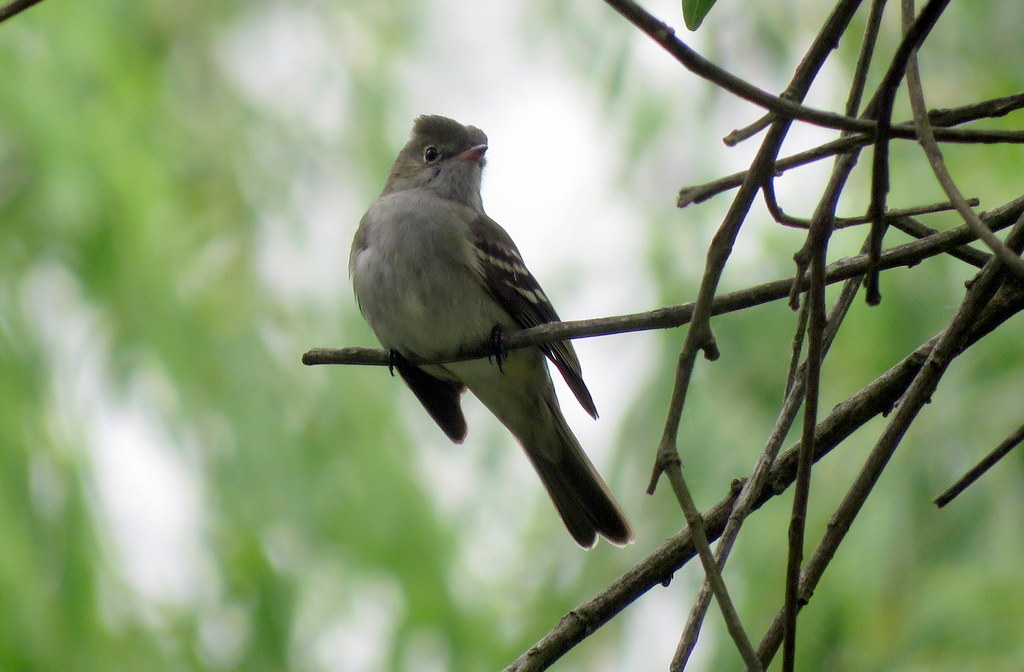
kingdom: Animalia
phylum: Chordata
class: Aves
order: Passeriformes
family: Tyrannidae
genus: Elaenia
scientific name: Elaenia parvirostris
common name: Small-billed elaenia
